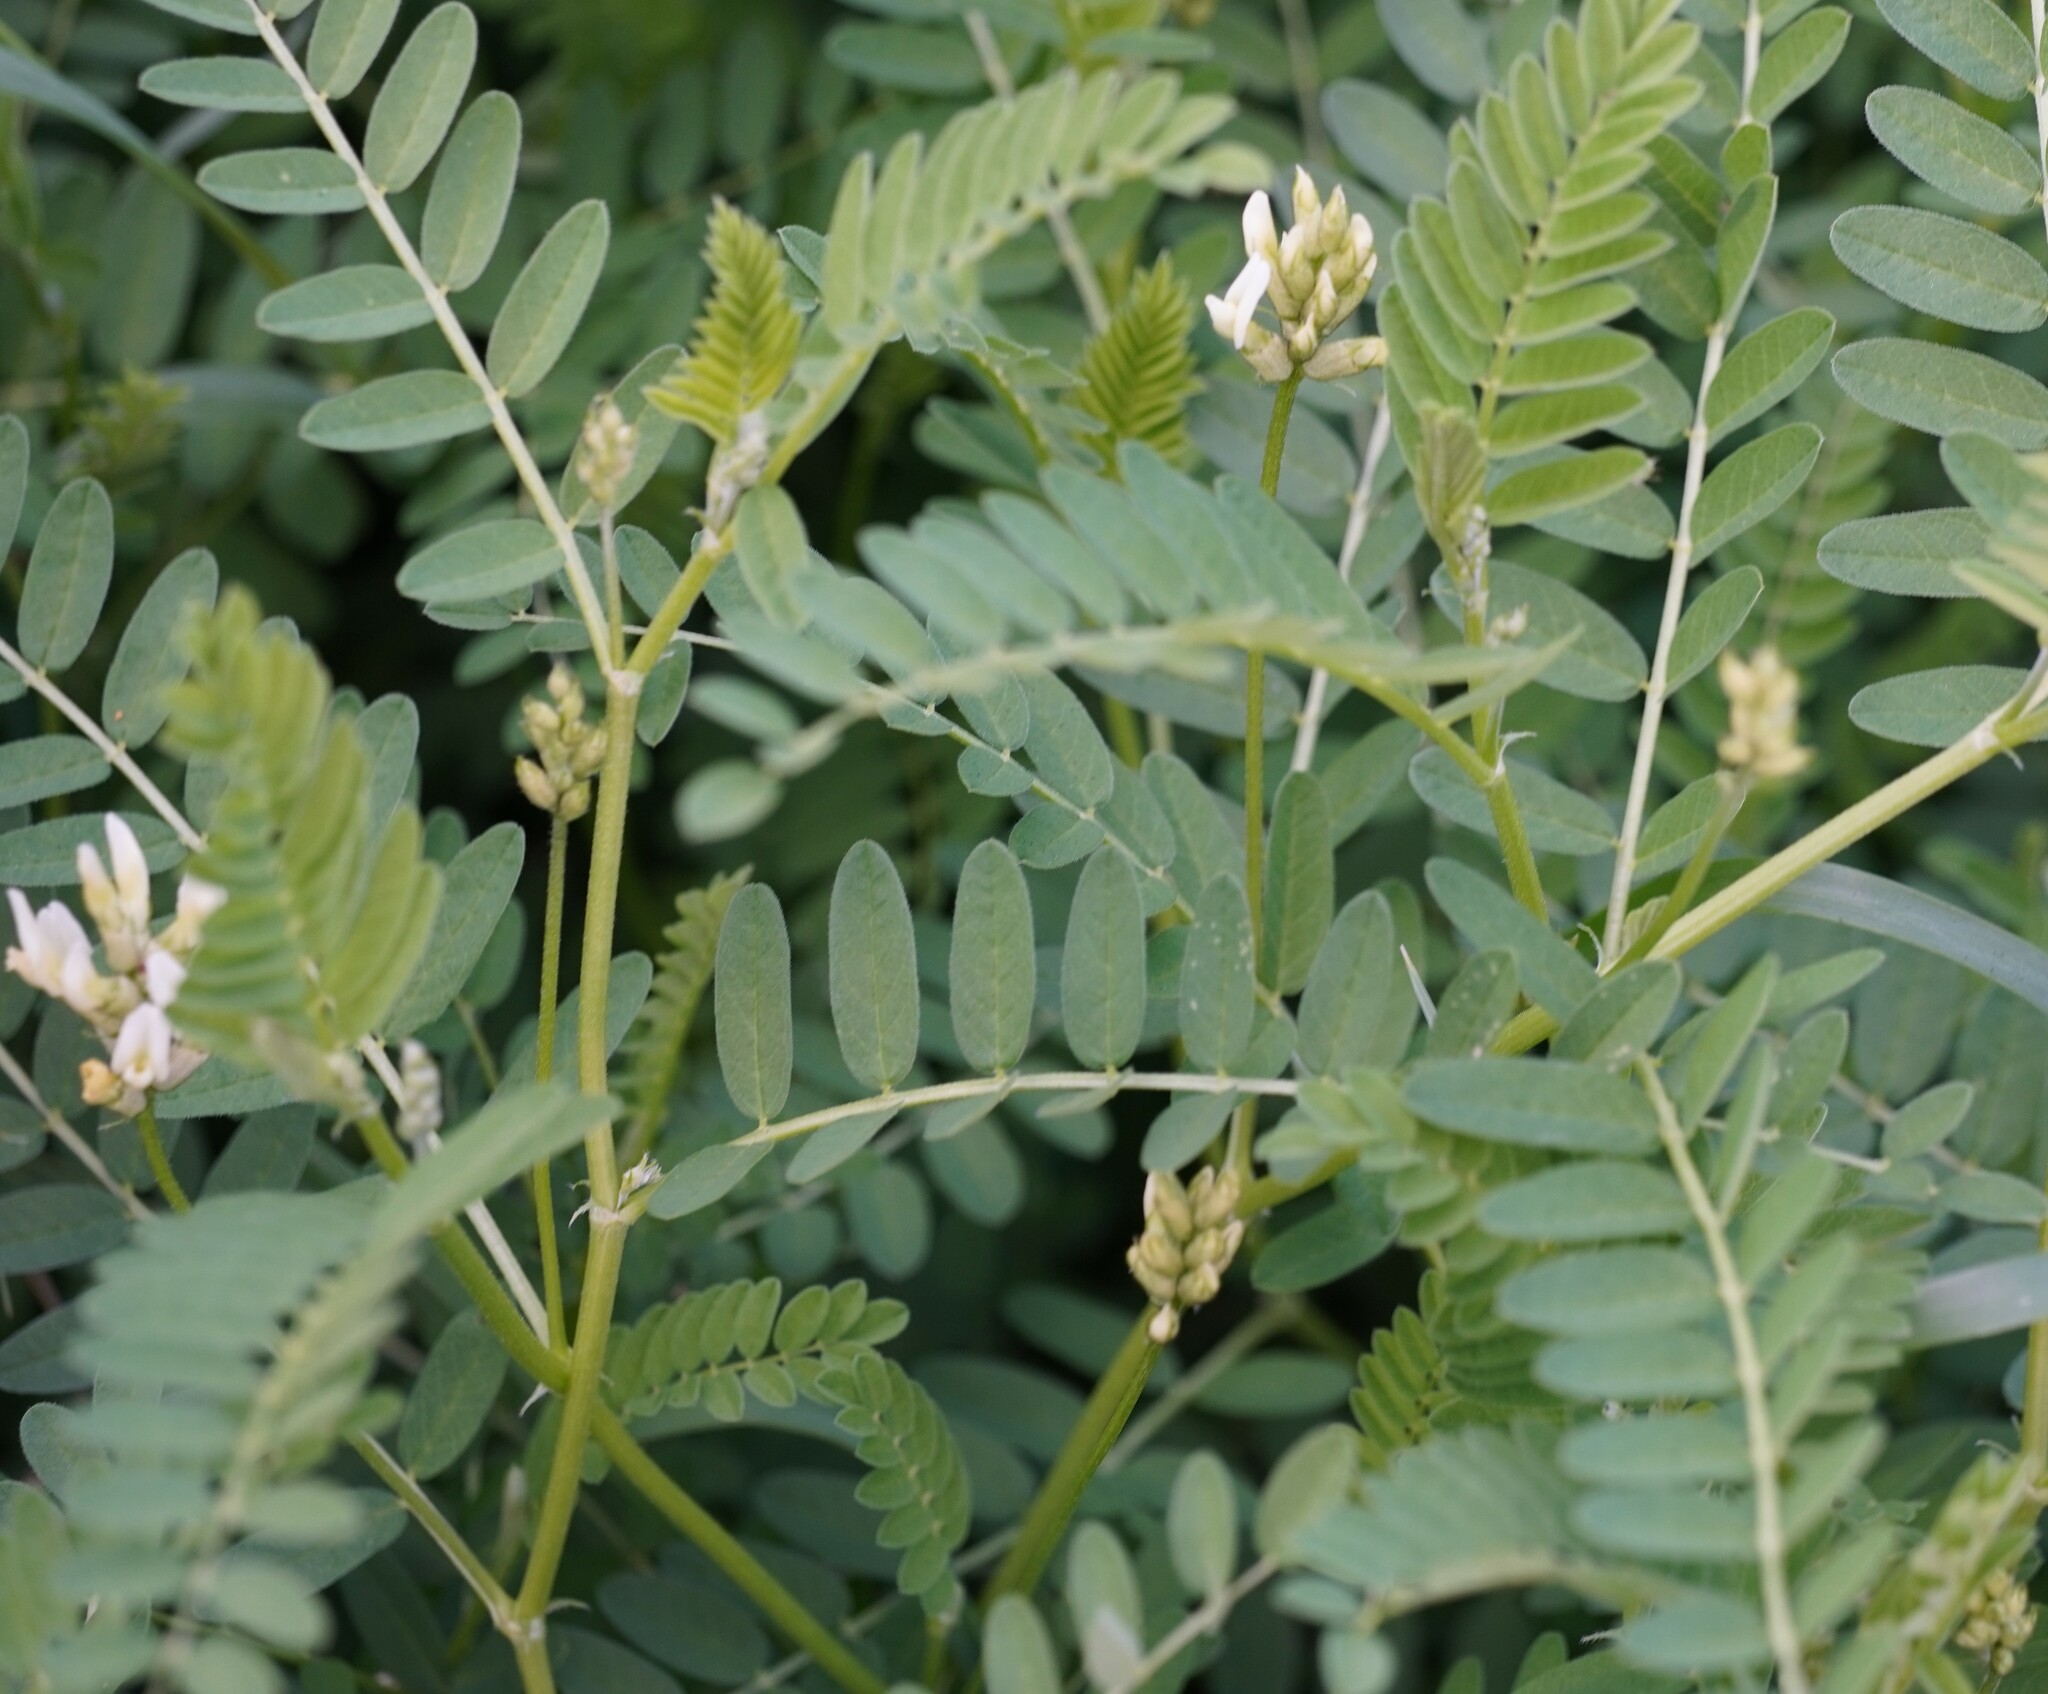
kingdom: Plantae
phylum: Tracheophyta
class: Magnoliopsida
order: Fabales
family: Fabaceae
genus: Astragalus
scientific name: Astragalus cicer
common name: Chick-pea milk-vetch
